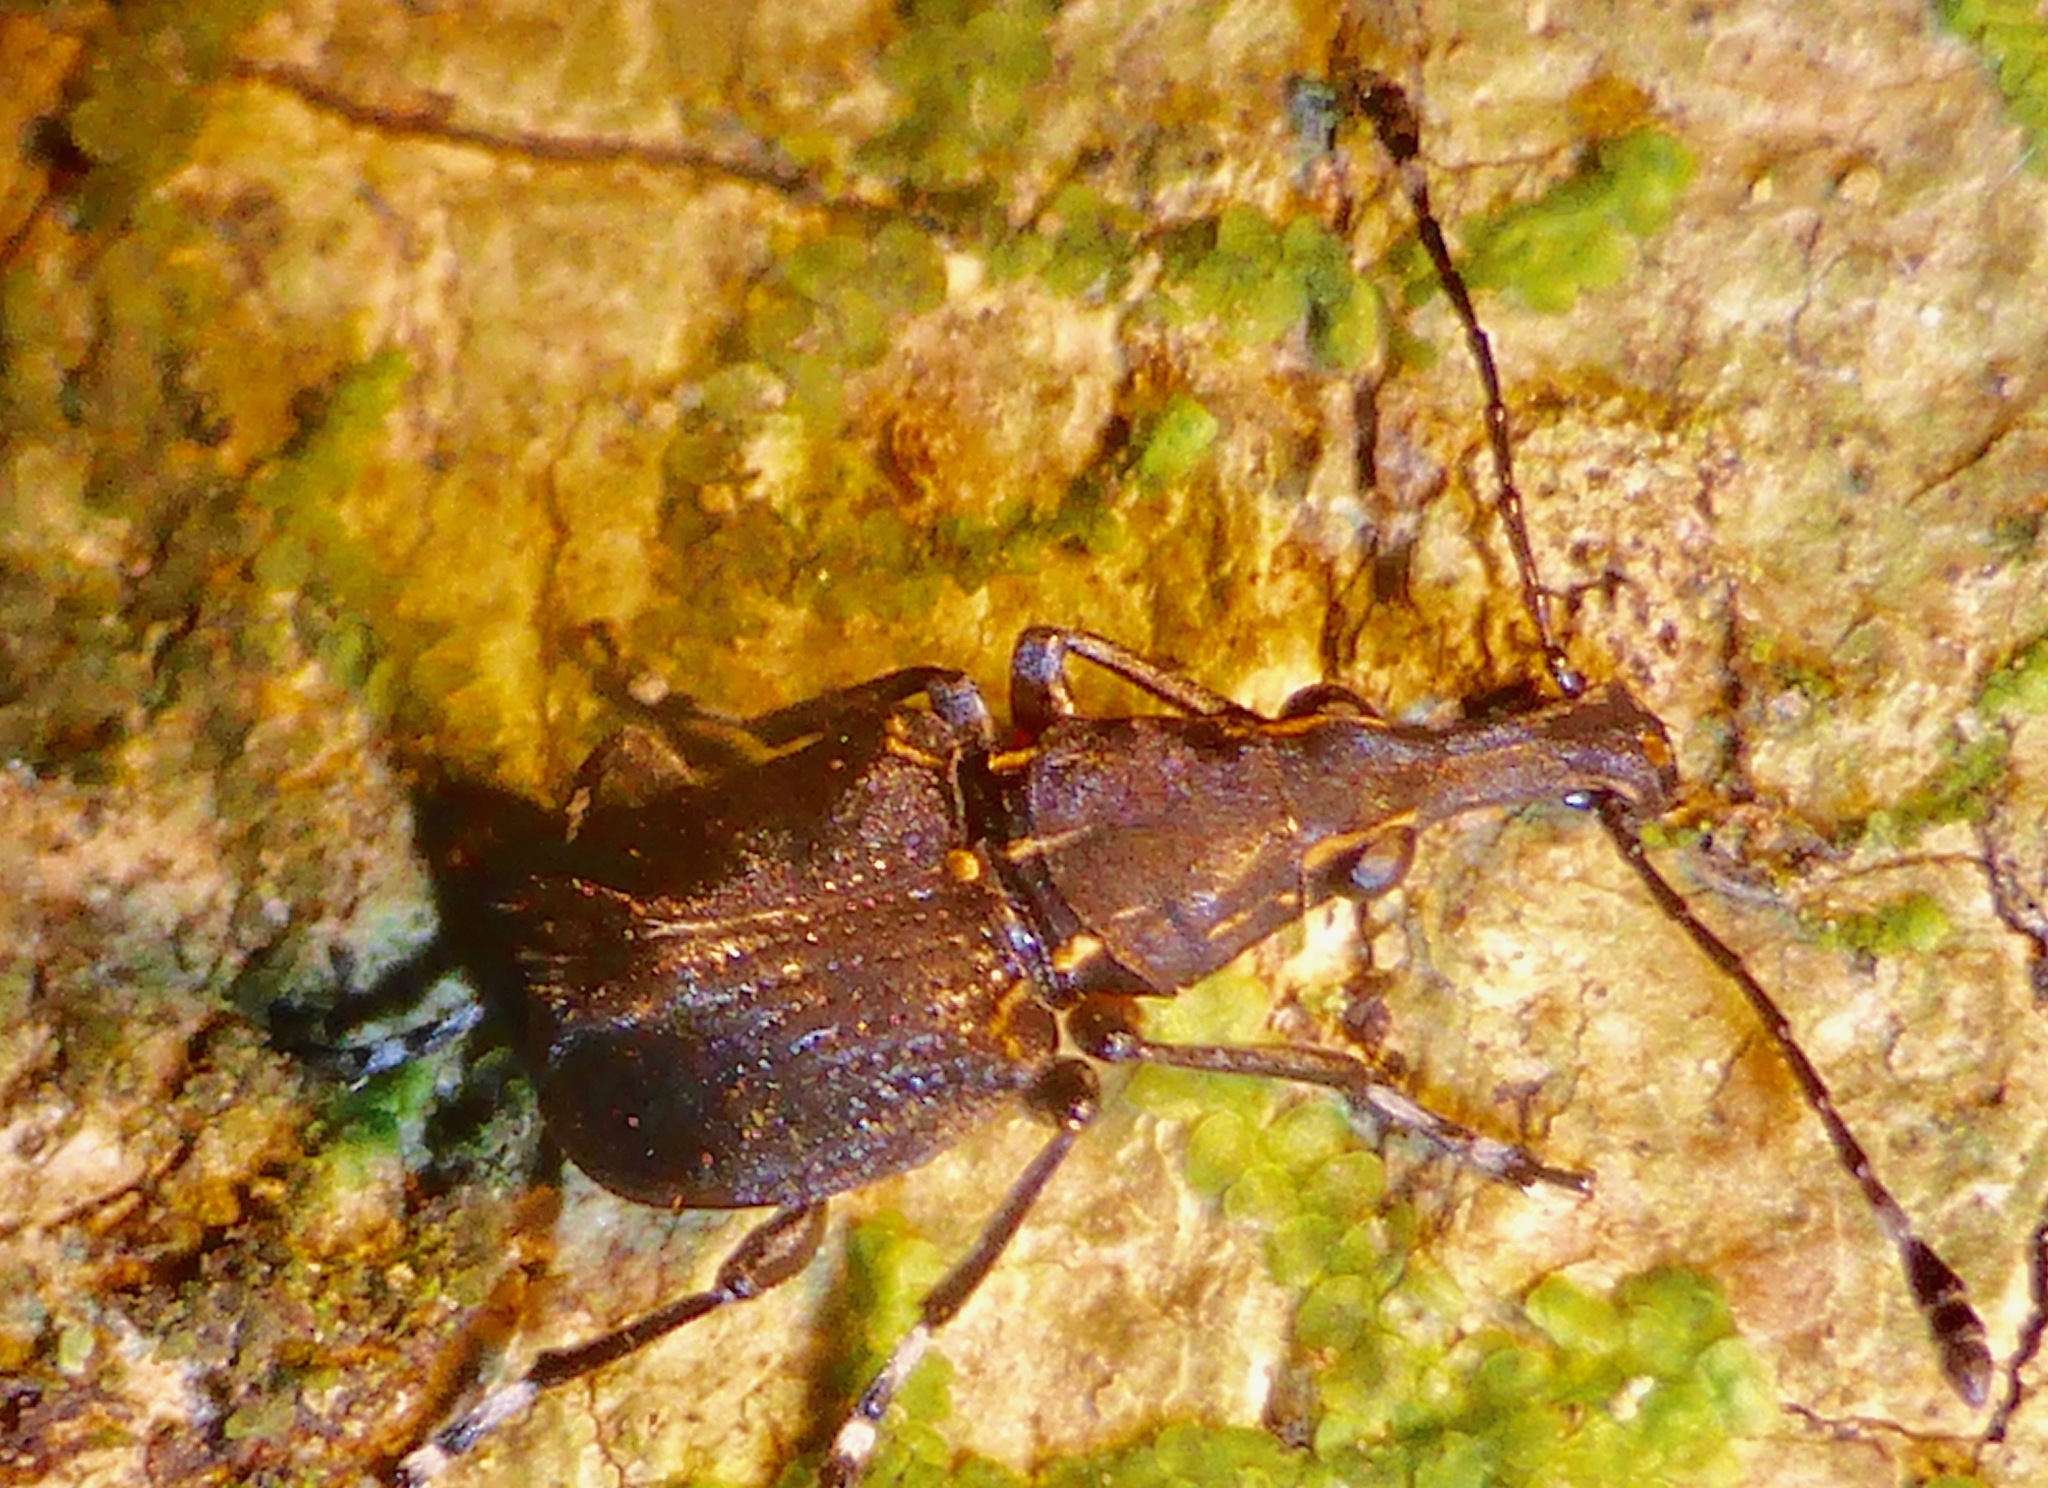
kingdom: Animalia
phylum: Arthropoda
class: Insecta
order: Coleoptera
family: Anthribidae
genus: Hoplorhaphus
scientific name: Hoplorhaphus
